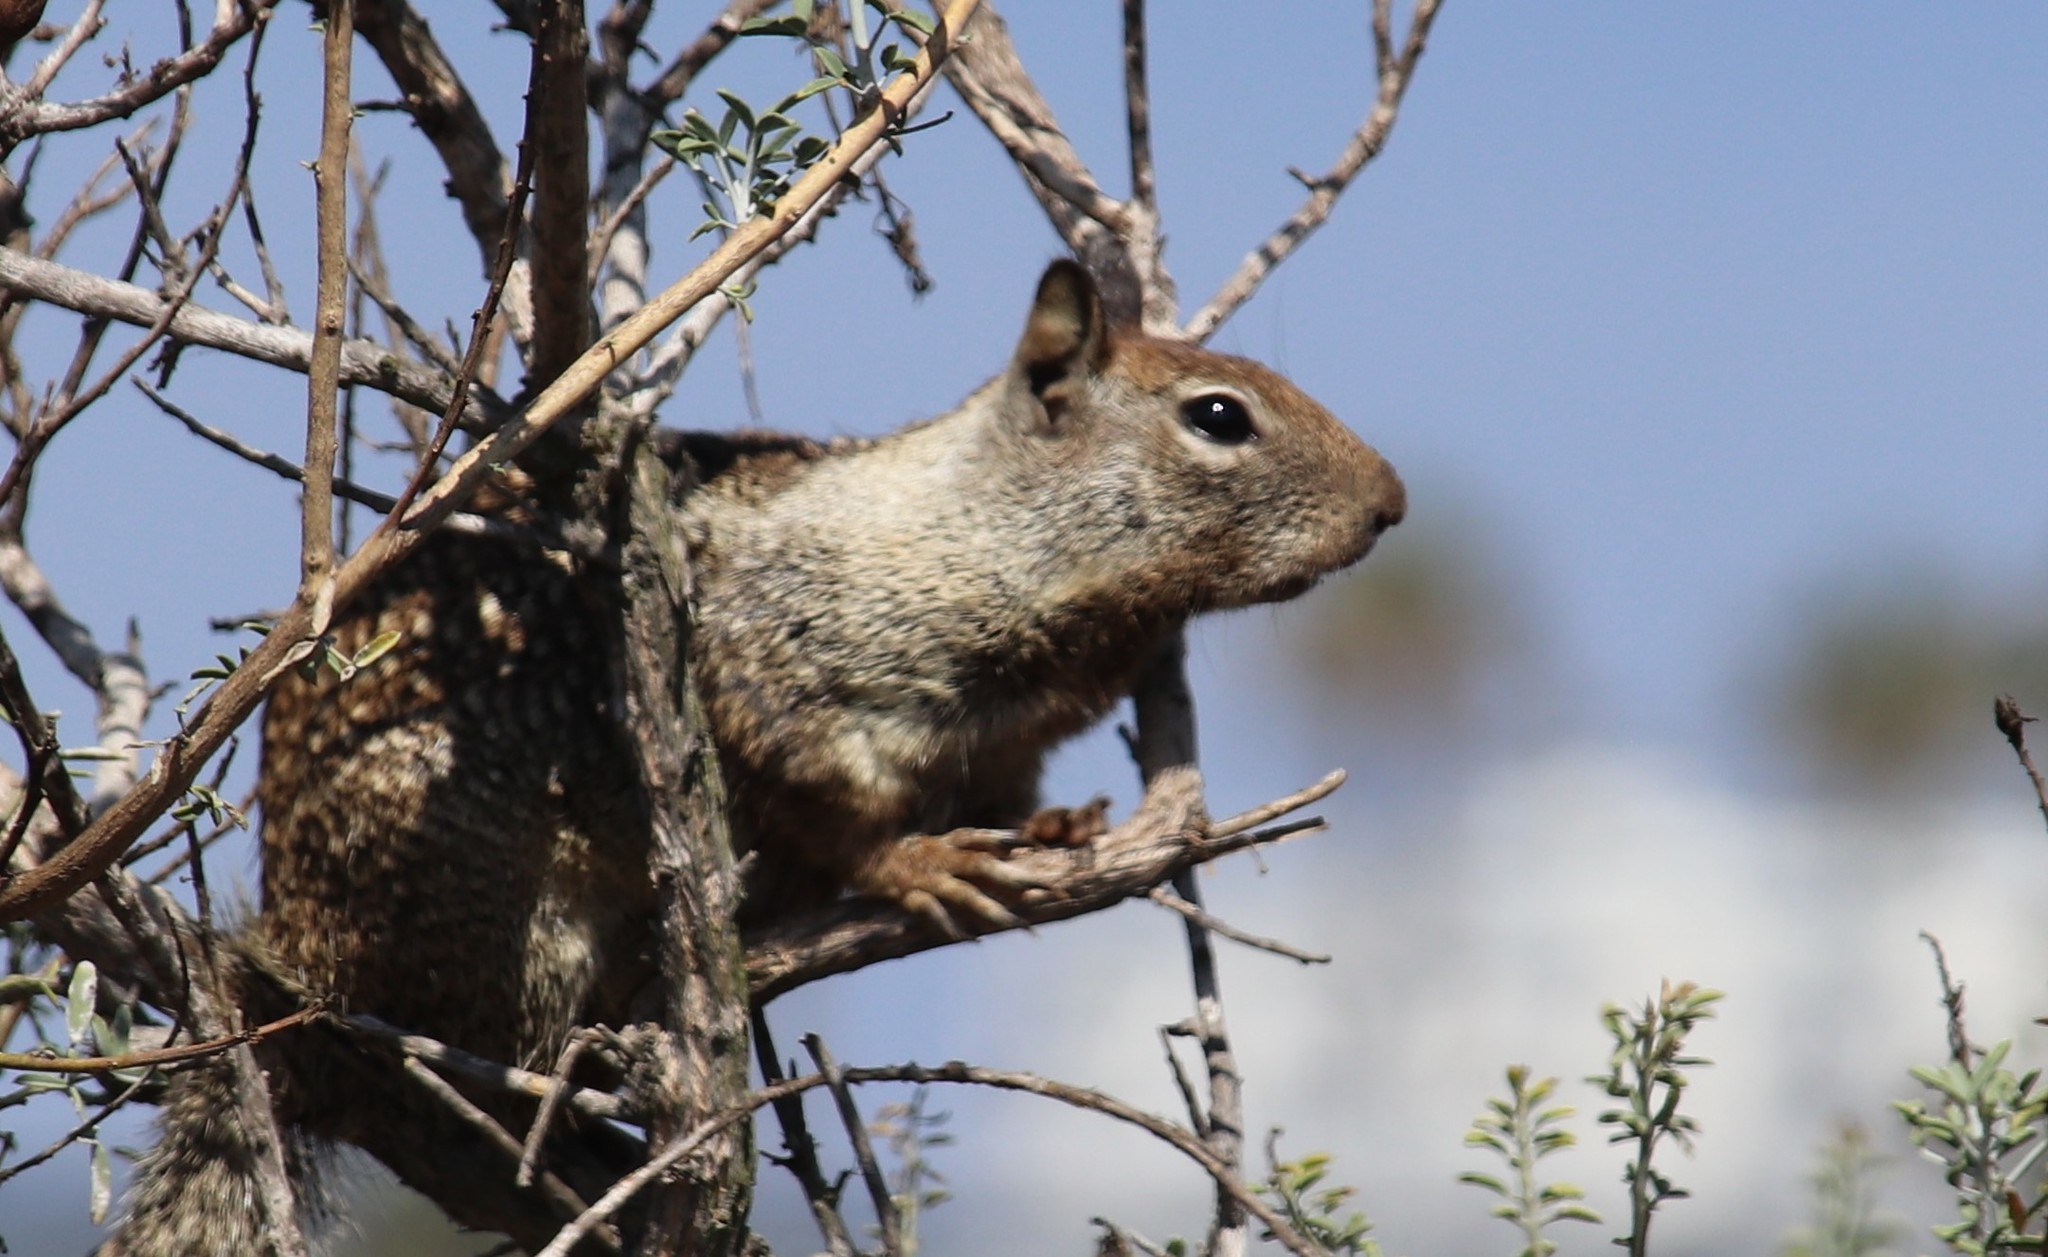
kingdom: Animalia
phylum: Chordata
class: Mammalia
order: Rodentia
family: Sciuridae
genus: Otospermophilus
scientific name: Otospermophilus beecheyi
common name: California ground squirrel
